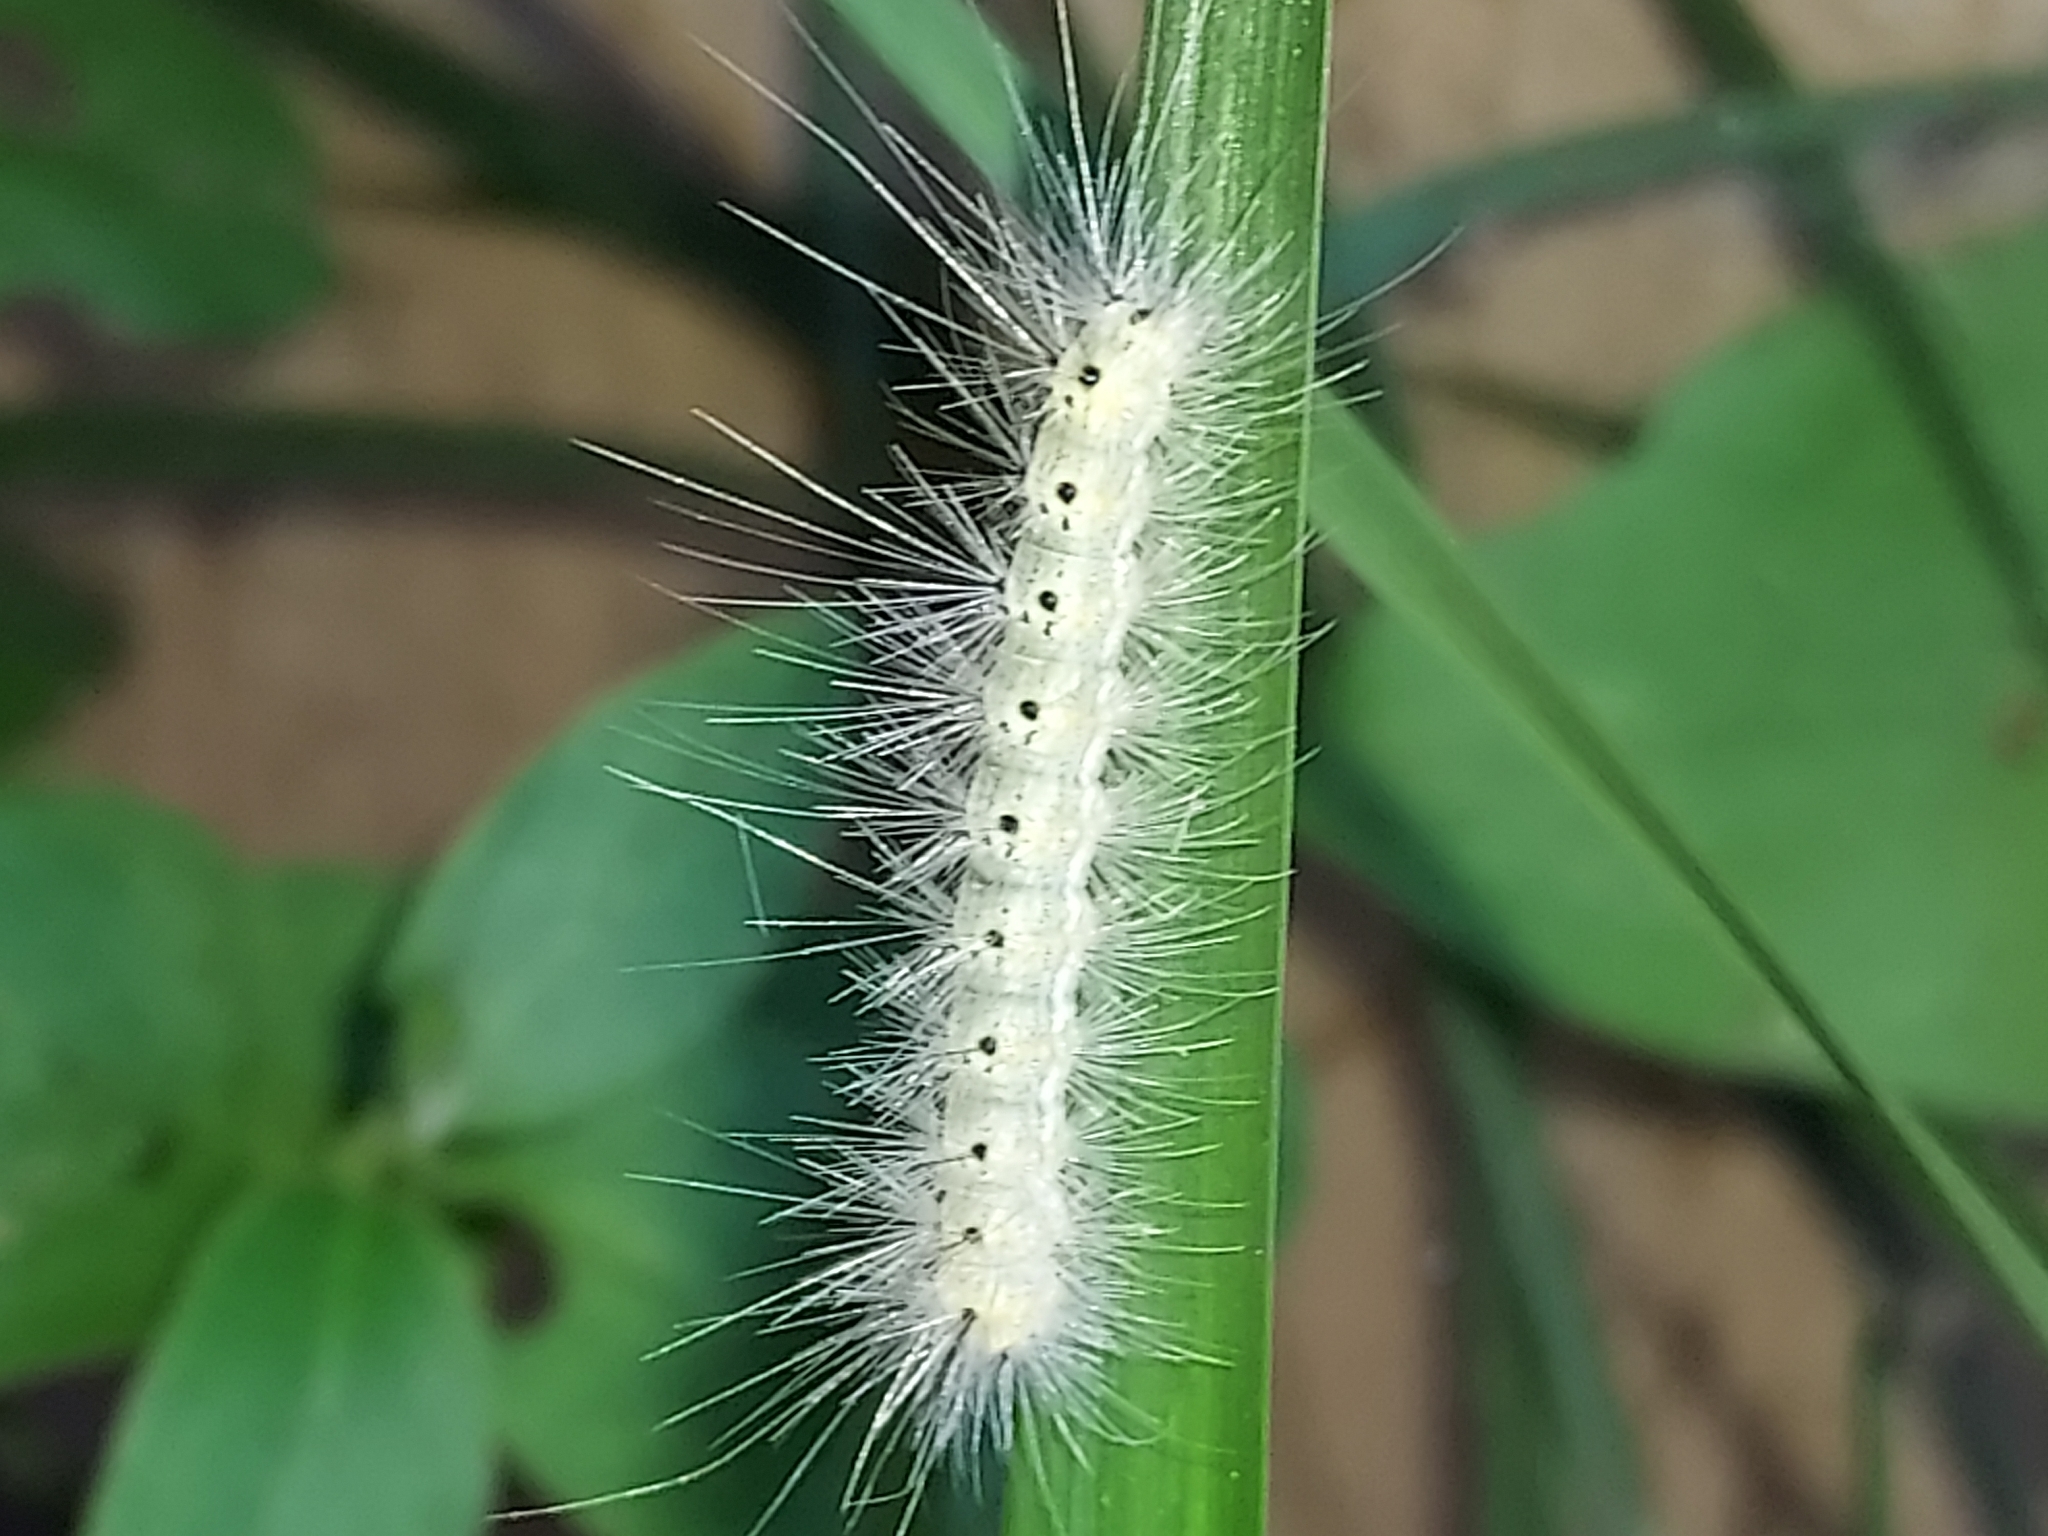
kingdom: Animalia
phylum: Arthropoda
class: Insecta
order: Lepidoptera
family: Erebidae
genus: Hyphantria
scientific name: Hyphantria cunea
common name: American white moth
